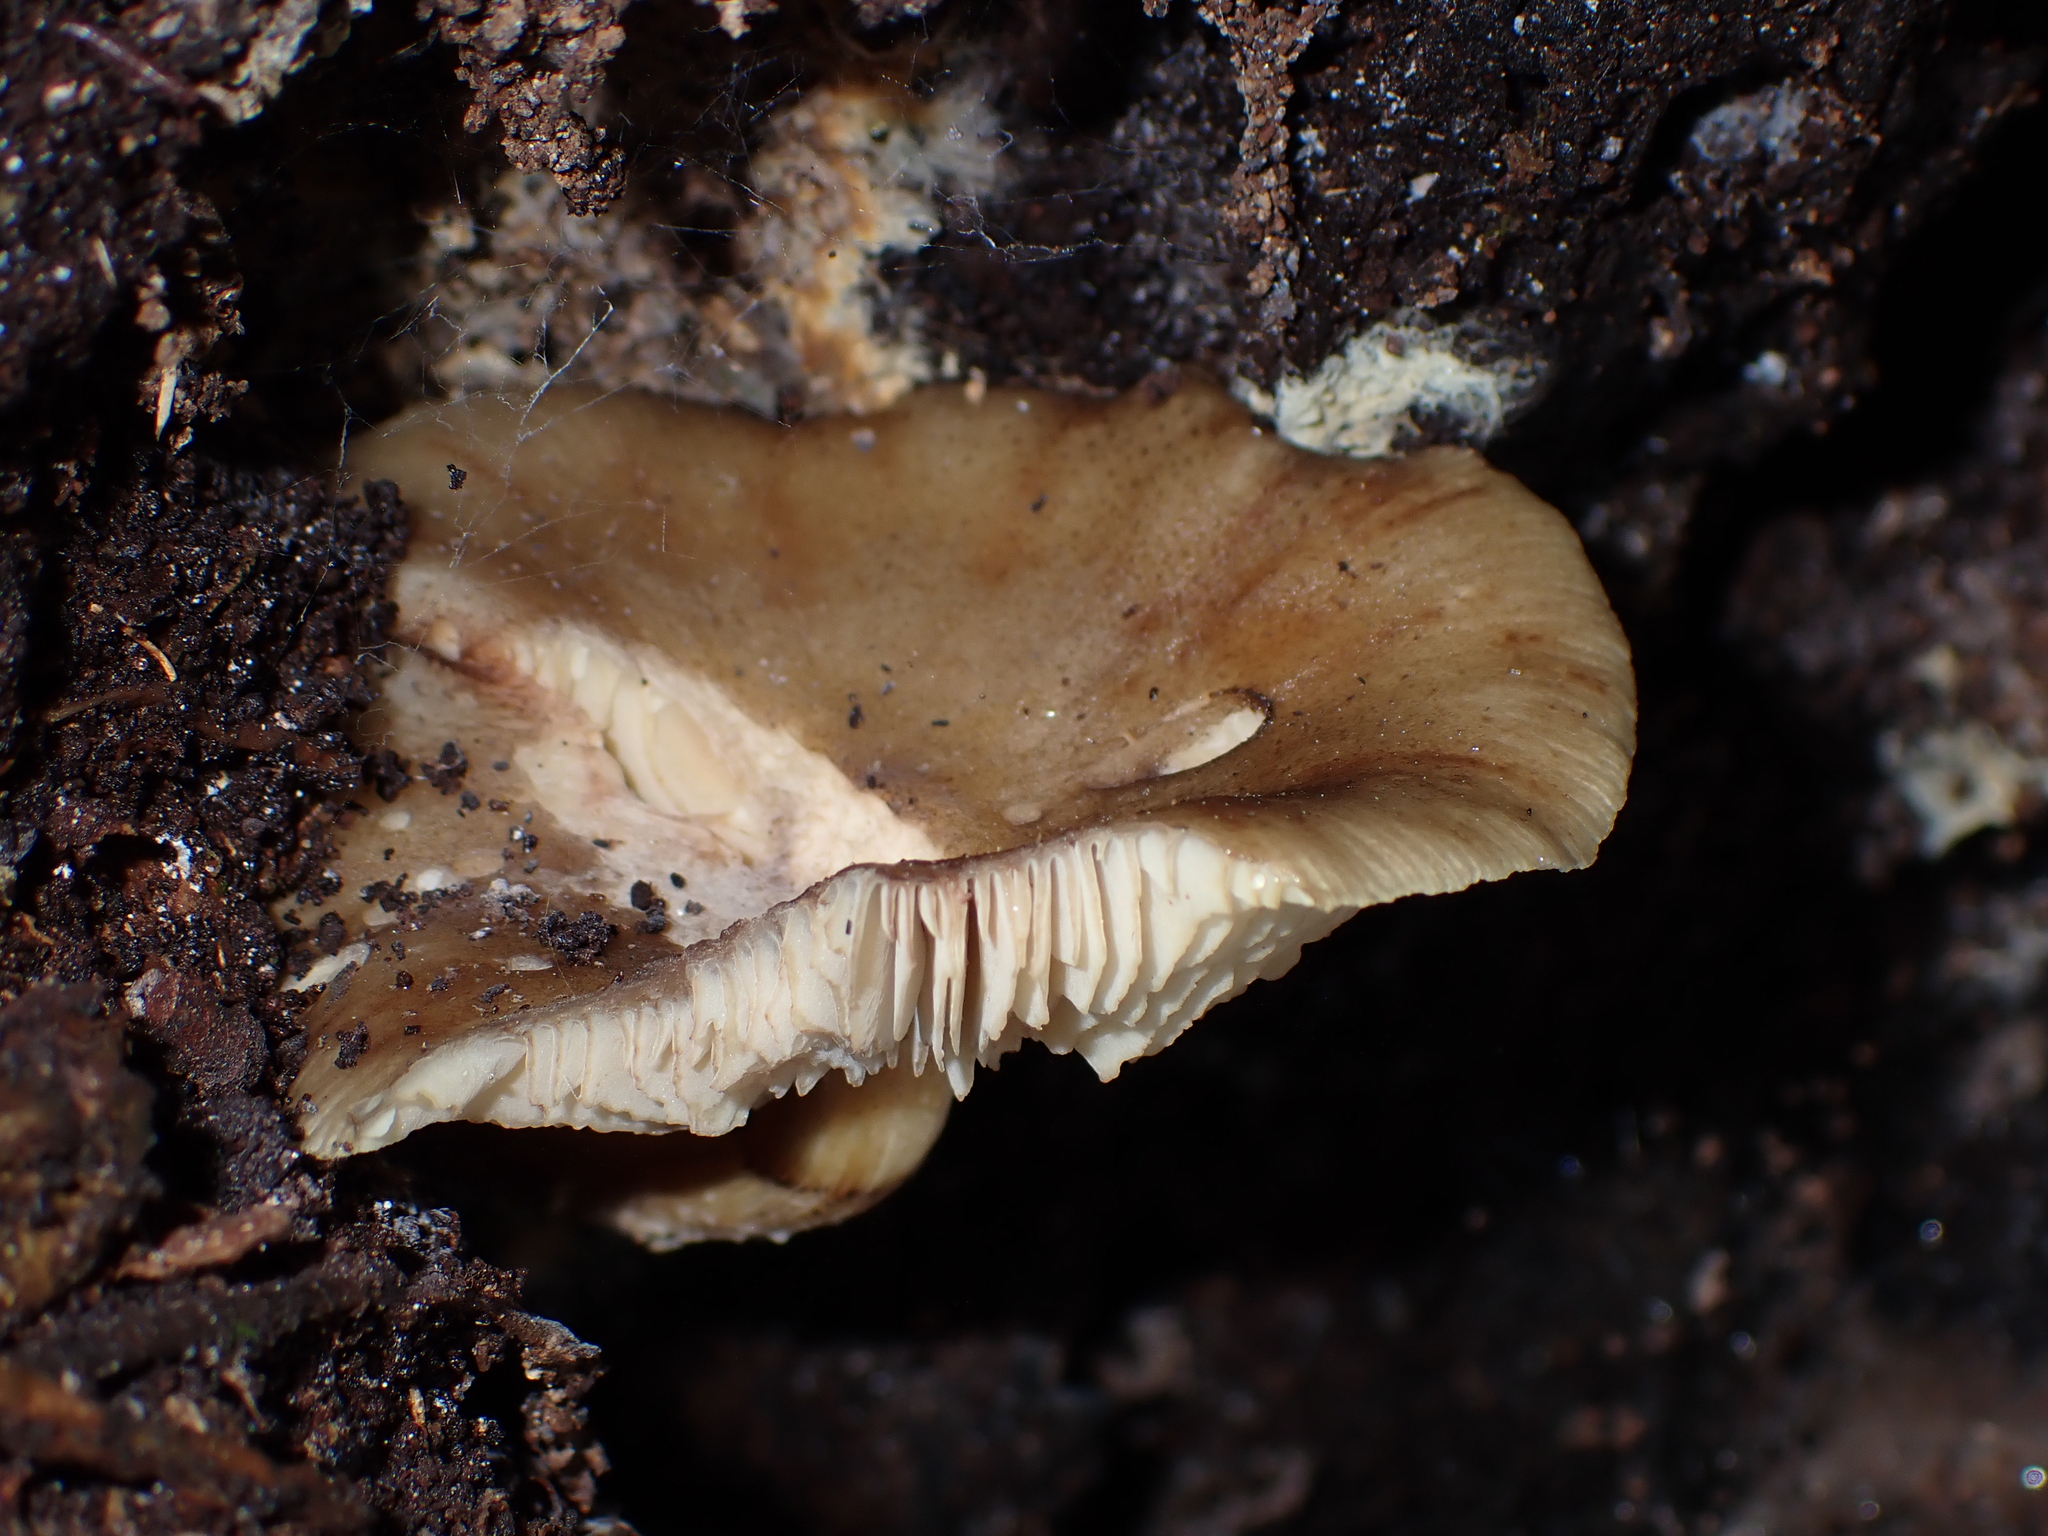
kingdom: Fungi
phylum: Basidiomycota
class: Agaricomycetes
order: Agaricales
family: Physalacriaceae
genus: Armillaria
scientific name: Armillaria novae-zelandiae
